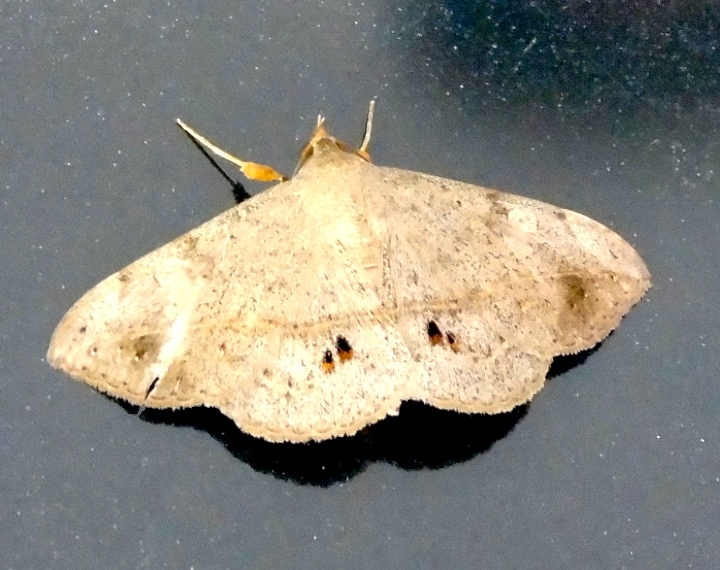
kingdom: Animalia
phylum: Arthropoda
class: Insecta
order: Lepidoptera
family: Erebidae
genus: Anticarsia
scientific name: Anticarsia
